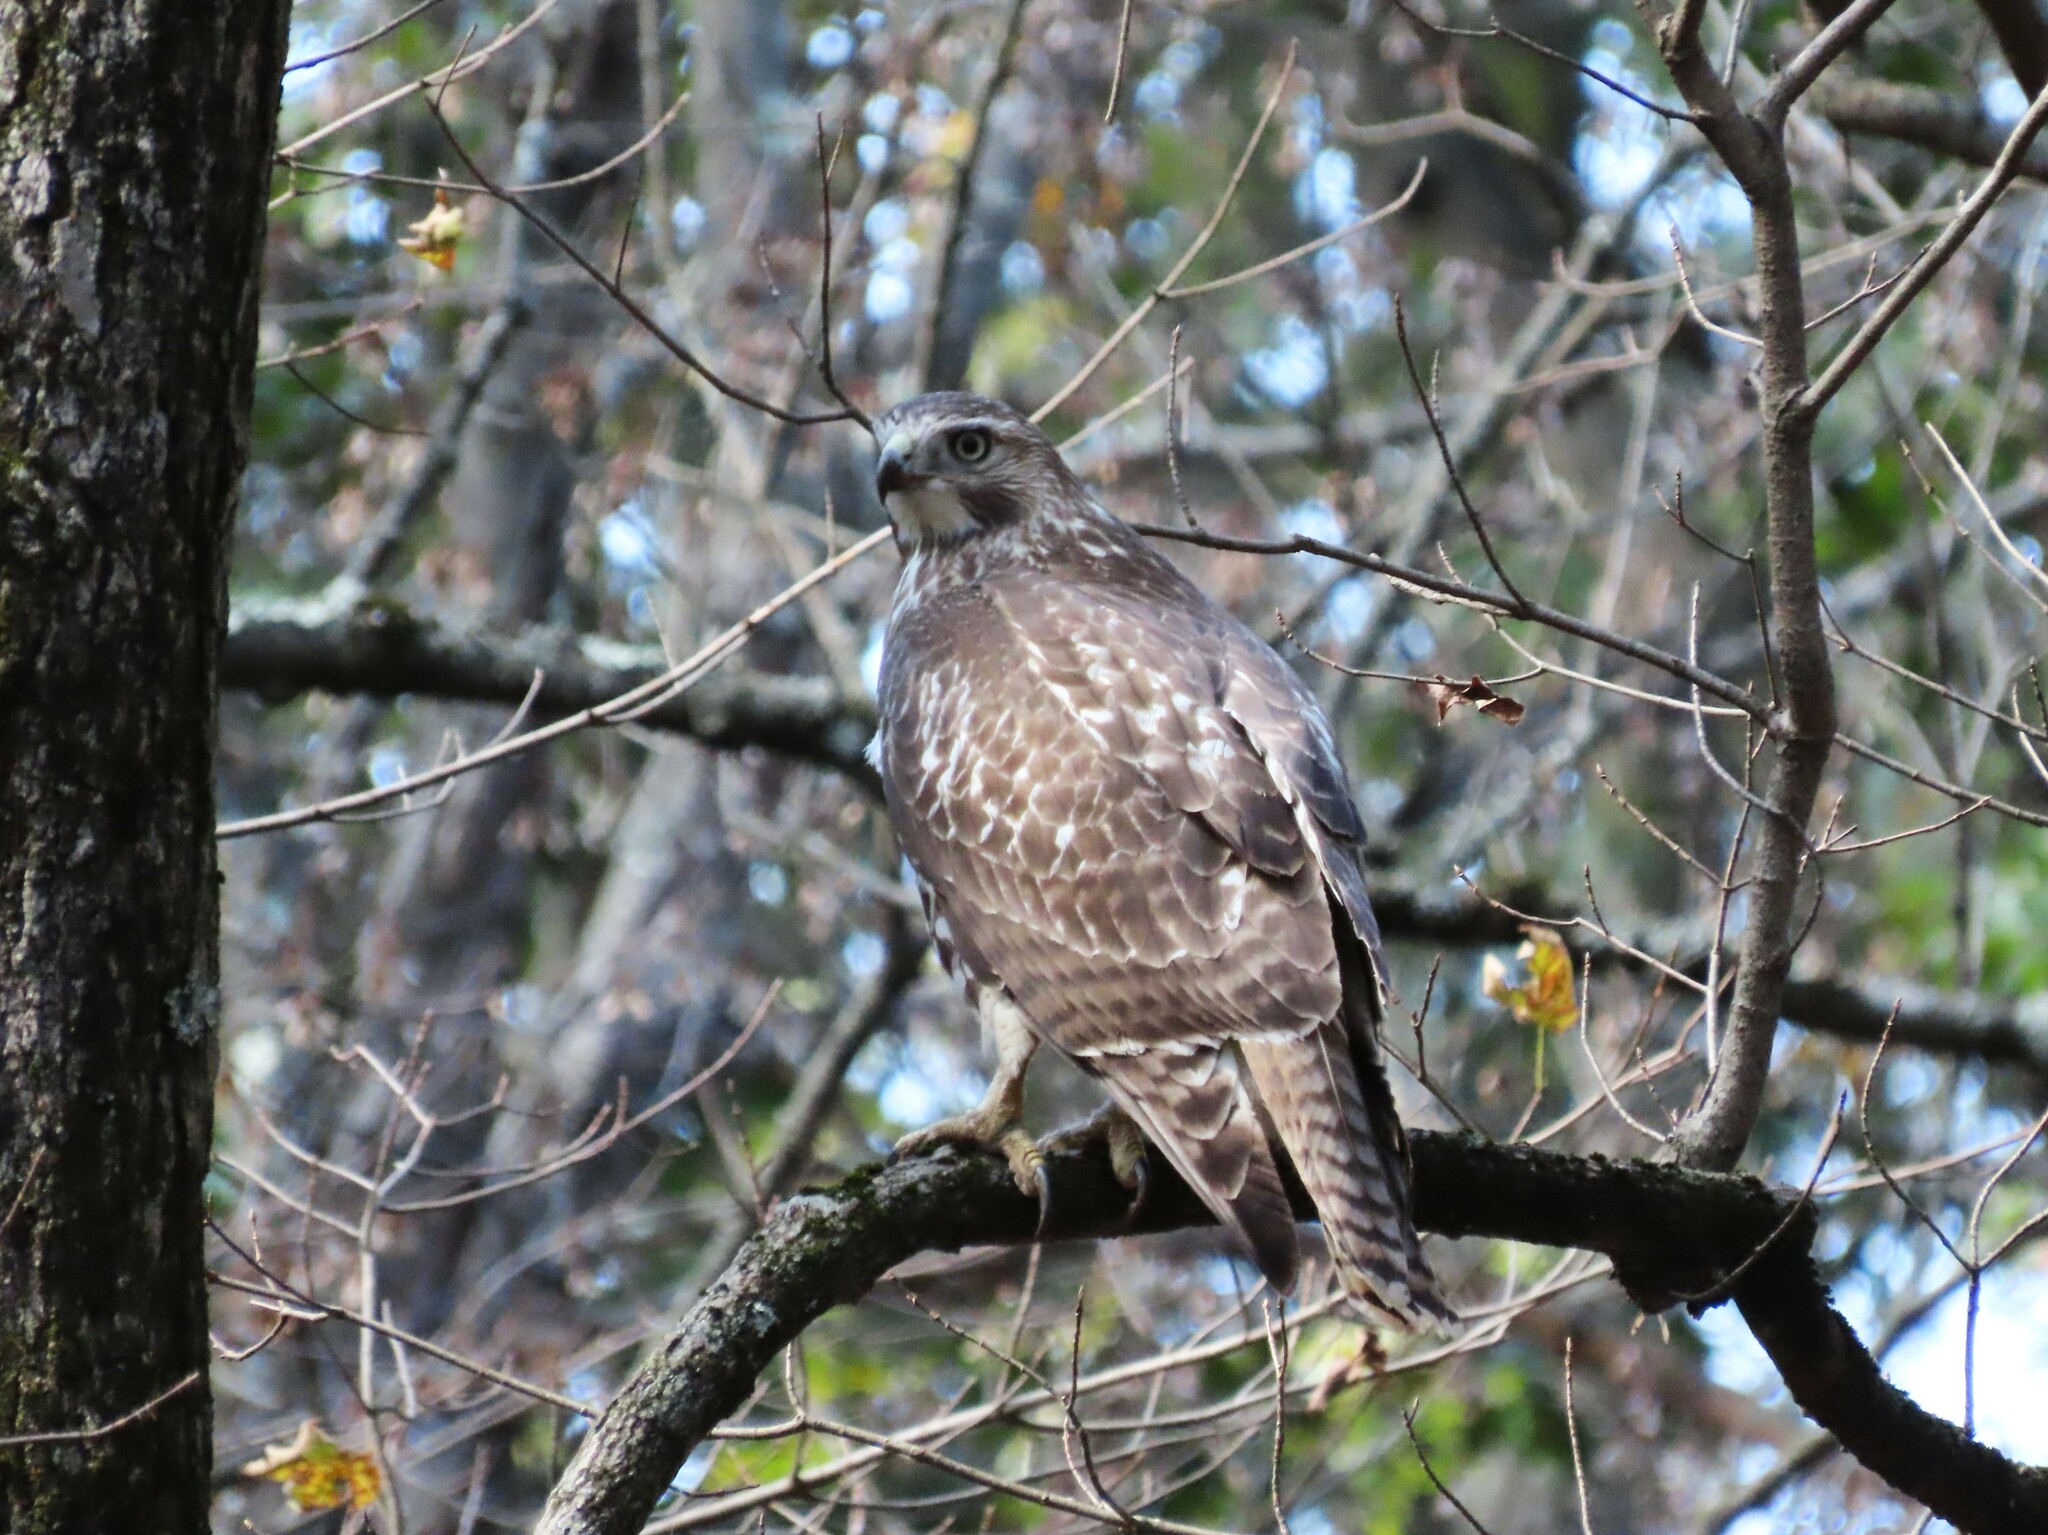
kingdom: Animalia
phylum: Chordata
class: Aves
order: Accipitriformes
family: Accipitridae
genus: Buteo
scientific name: Buteo jamaicensis
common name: Red-tailed hawk
